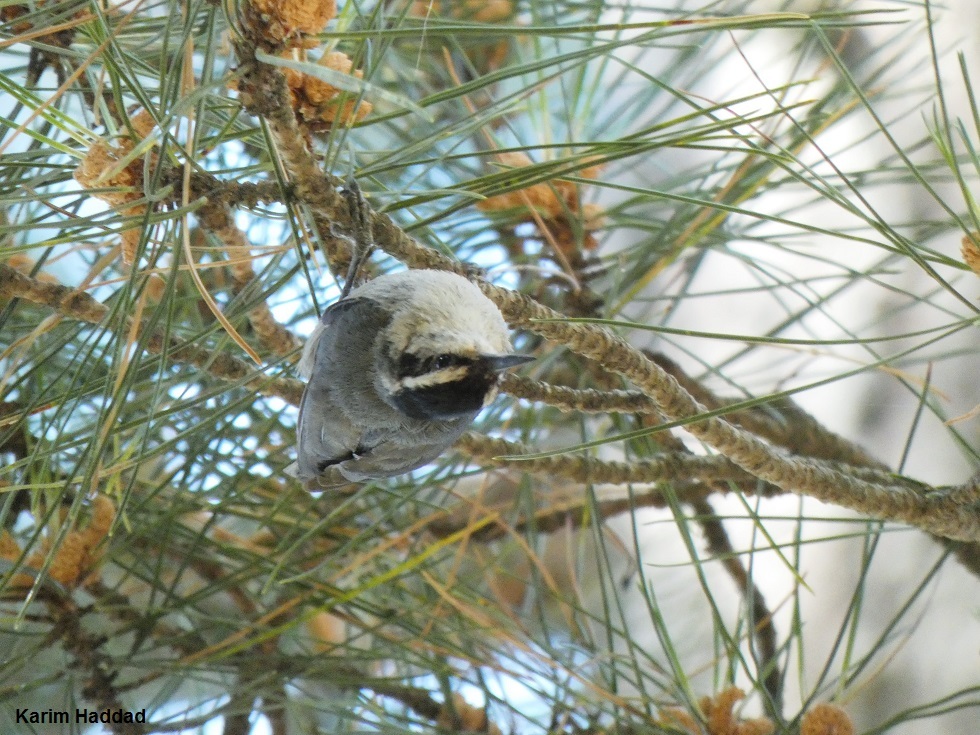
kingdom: Animalia
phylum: Chordata
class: Aves
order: Passeriformes
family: Sittidae
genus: Sitta
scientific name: Sitta whiteheadi
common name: Corsican nuthatch
